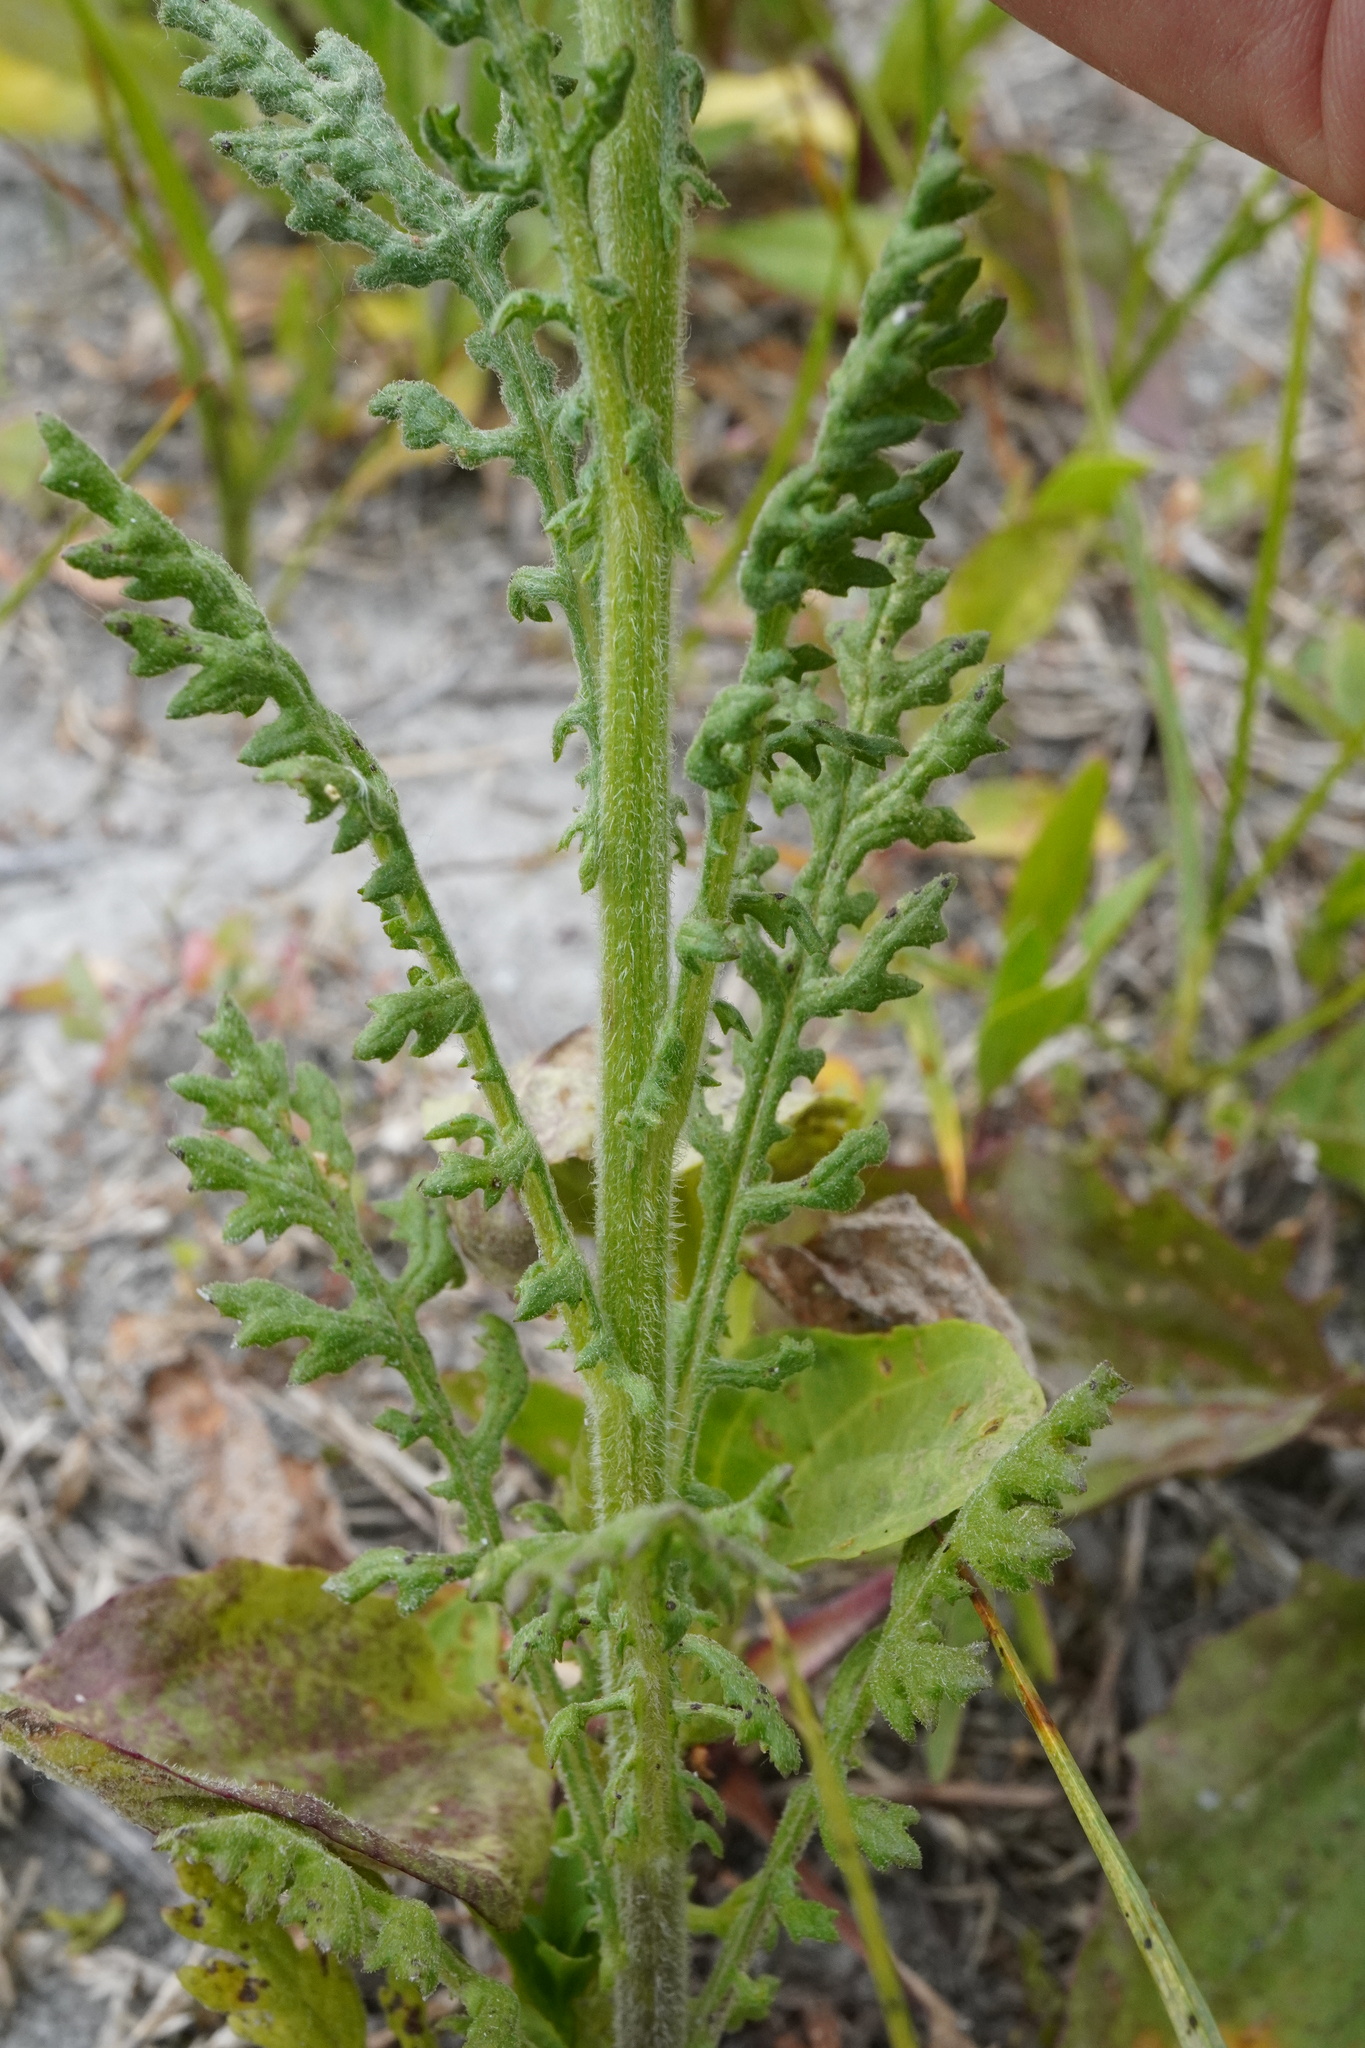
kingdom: Plantae
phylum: Tracheophyta
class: Magnoliopsida
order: Asterales
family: Asteraceae
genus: Senecio
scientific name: Senecio sylvaticus
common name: Woodland ragwort
